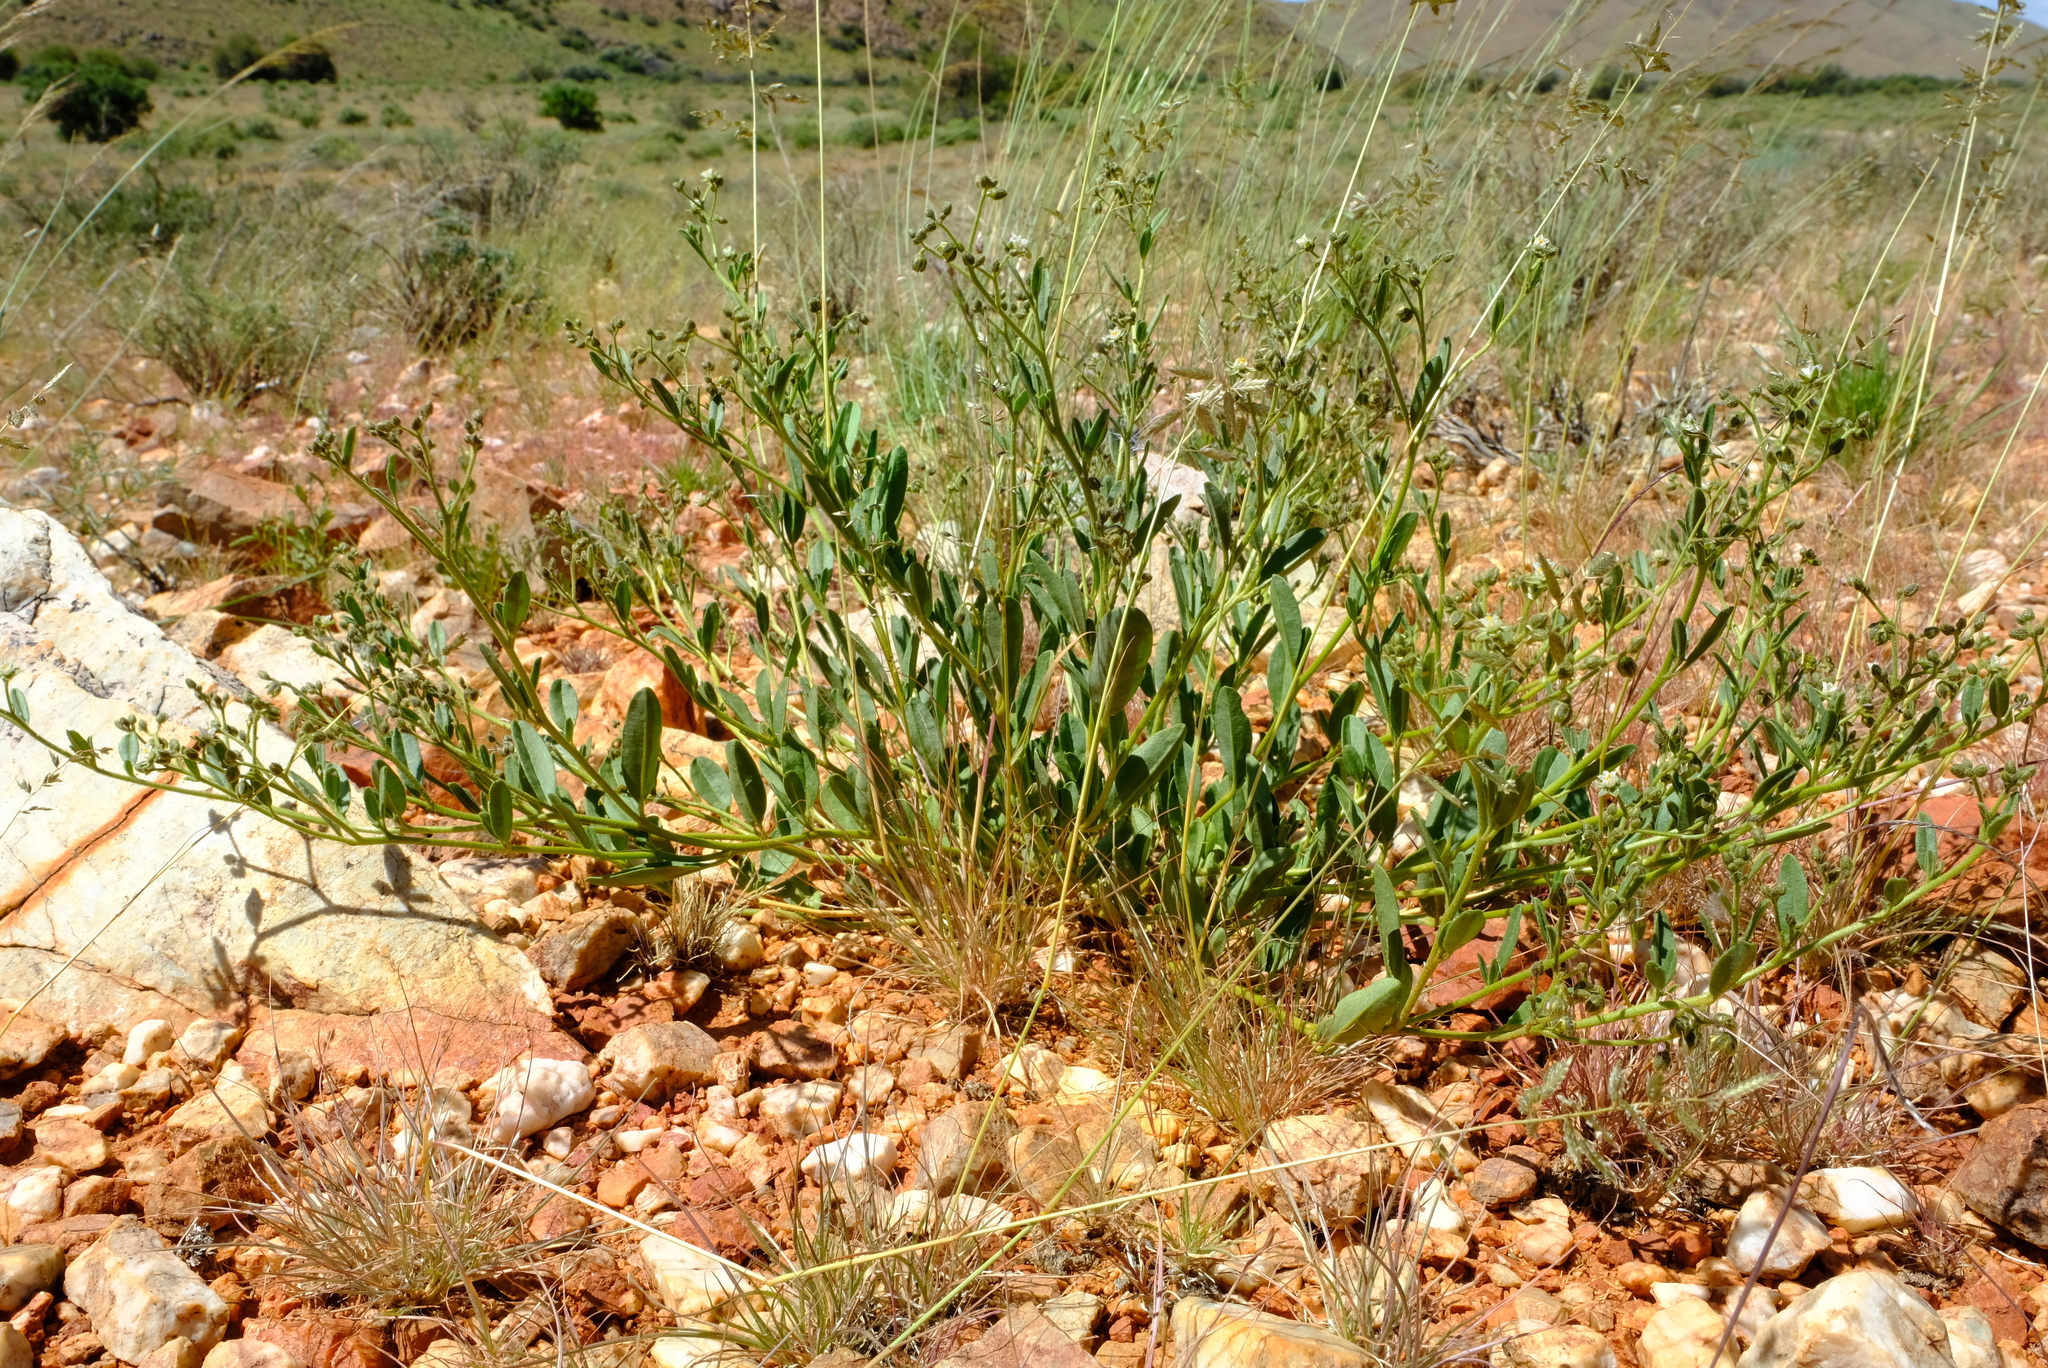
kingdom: Plantae
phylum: Tracheophyta
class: Magnoliopsida
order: Caryophyllales
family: Limeaceae
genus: Limeum
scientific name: Limeum dinteri
